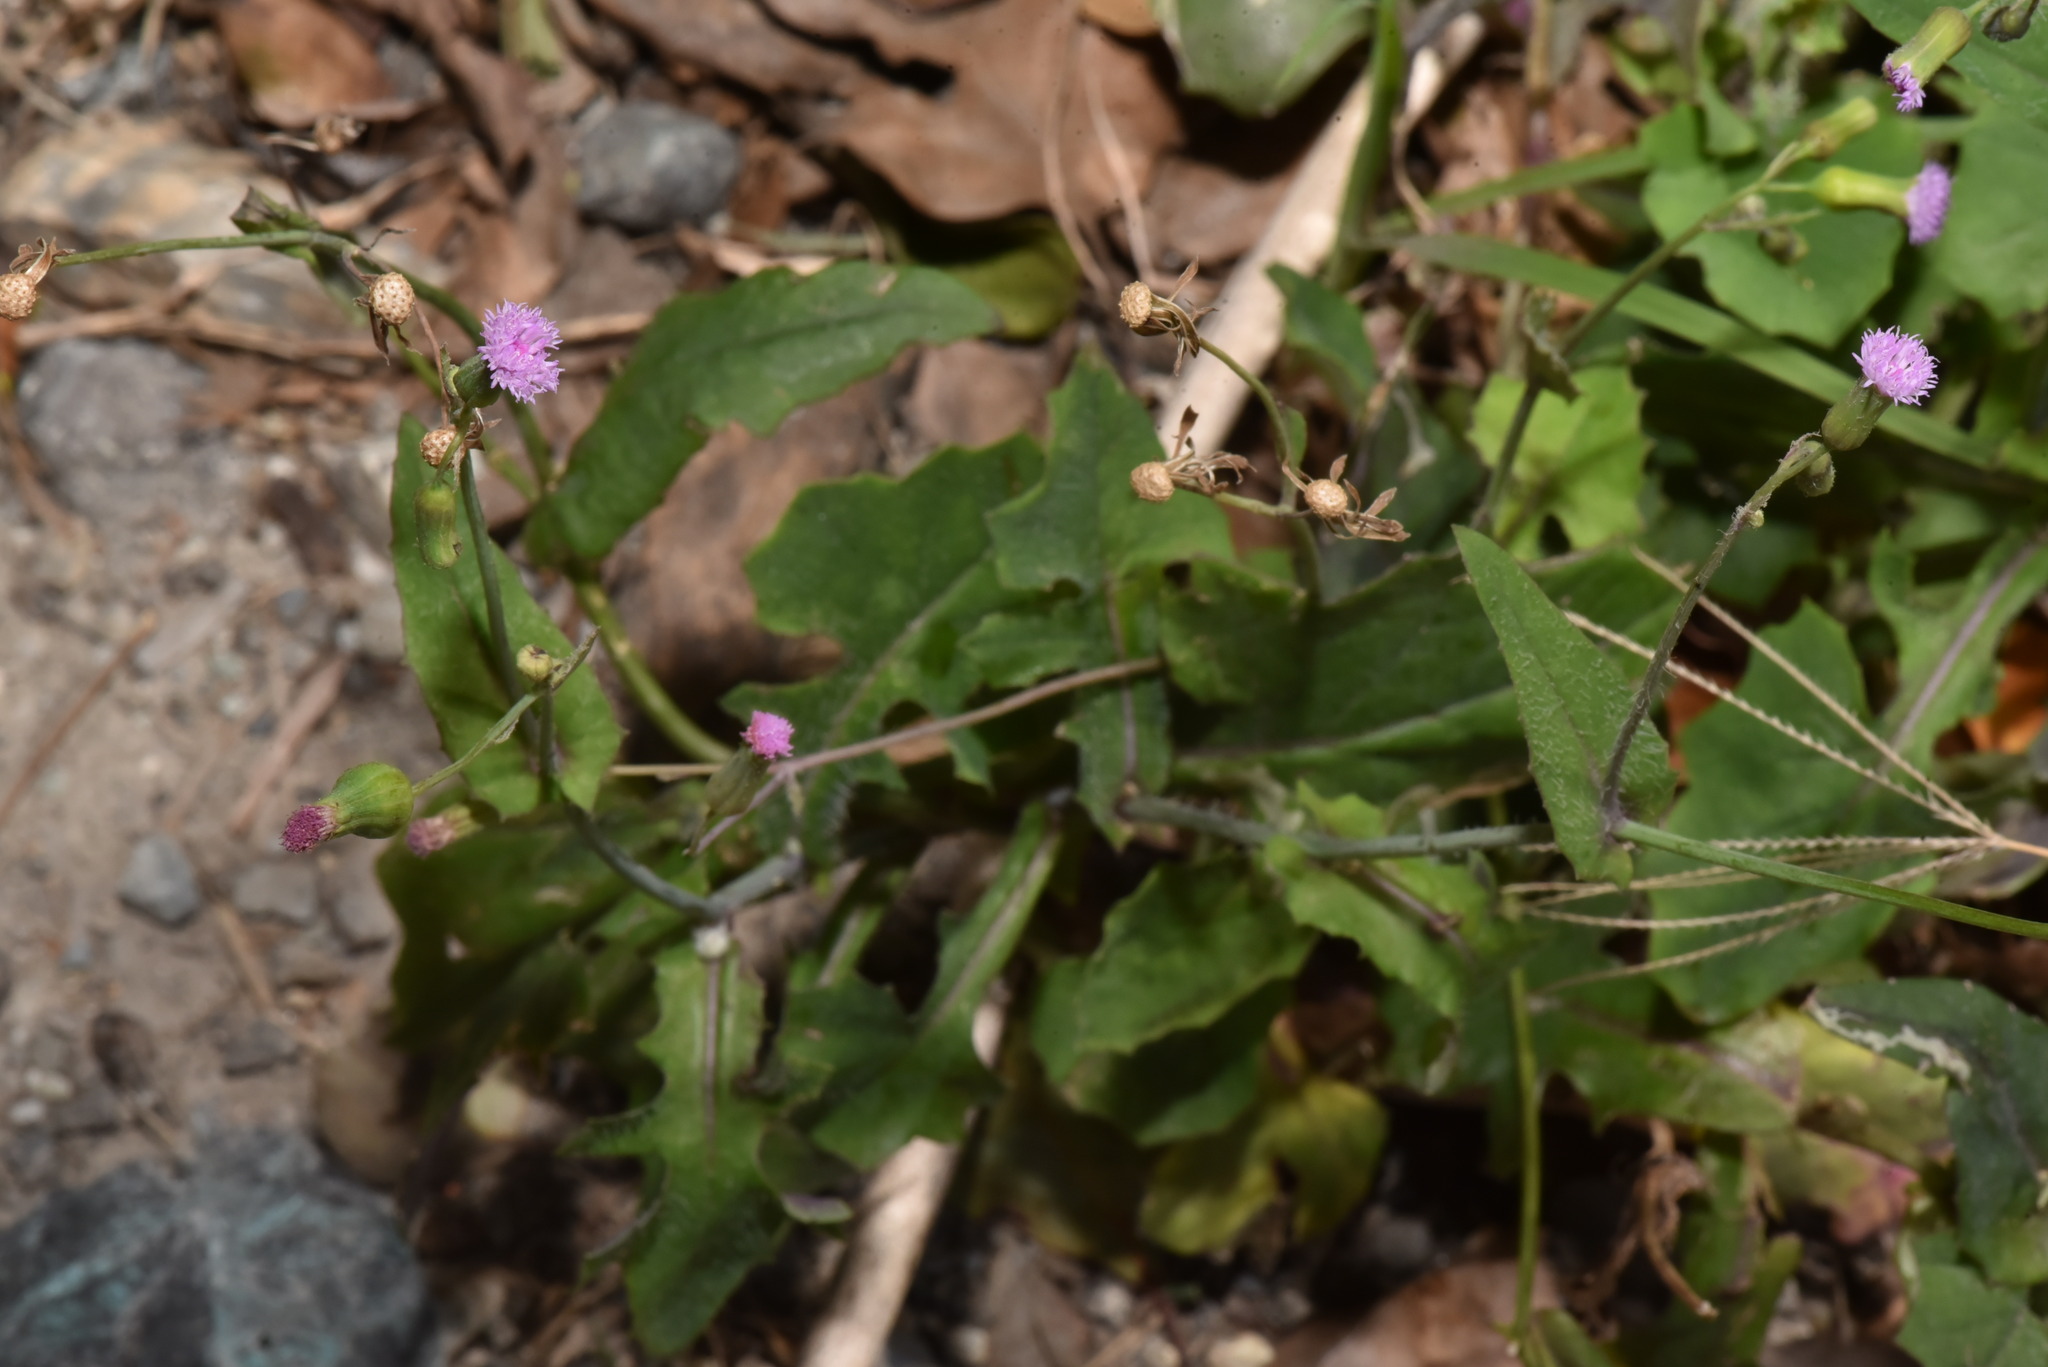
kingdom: Plantae
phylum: Tracheophyta
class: Magnoliopsida
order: Asterales
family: Asteraceae
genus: Emilia
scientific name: Emilia javanica
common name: Tassel-flower
